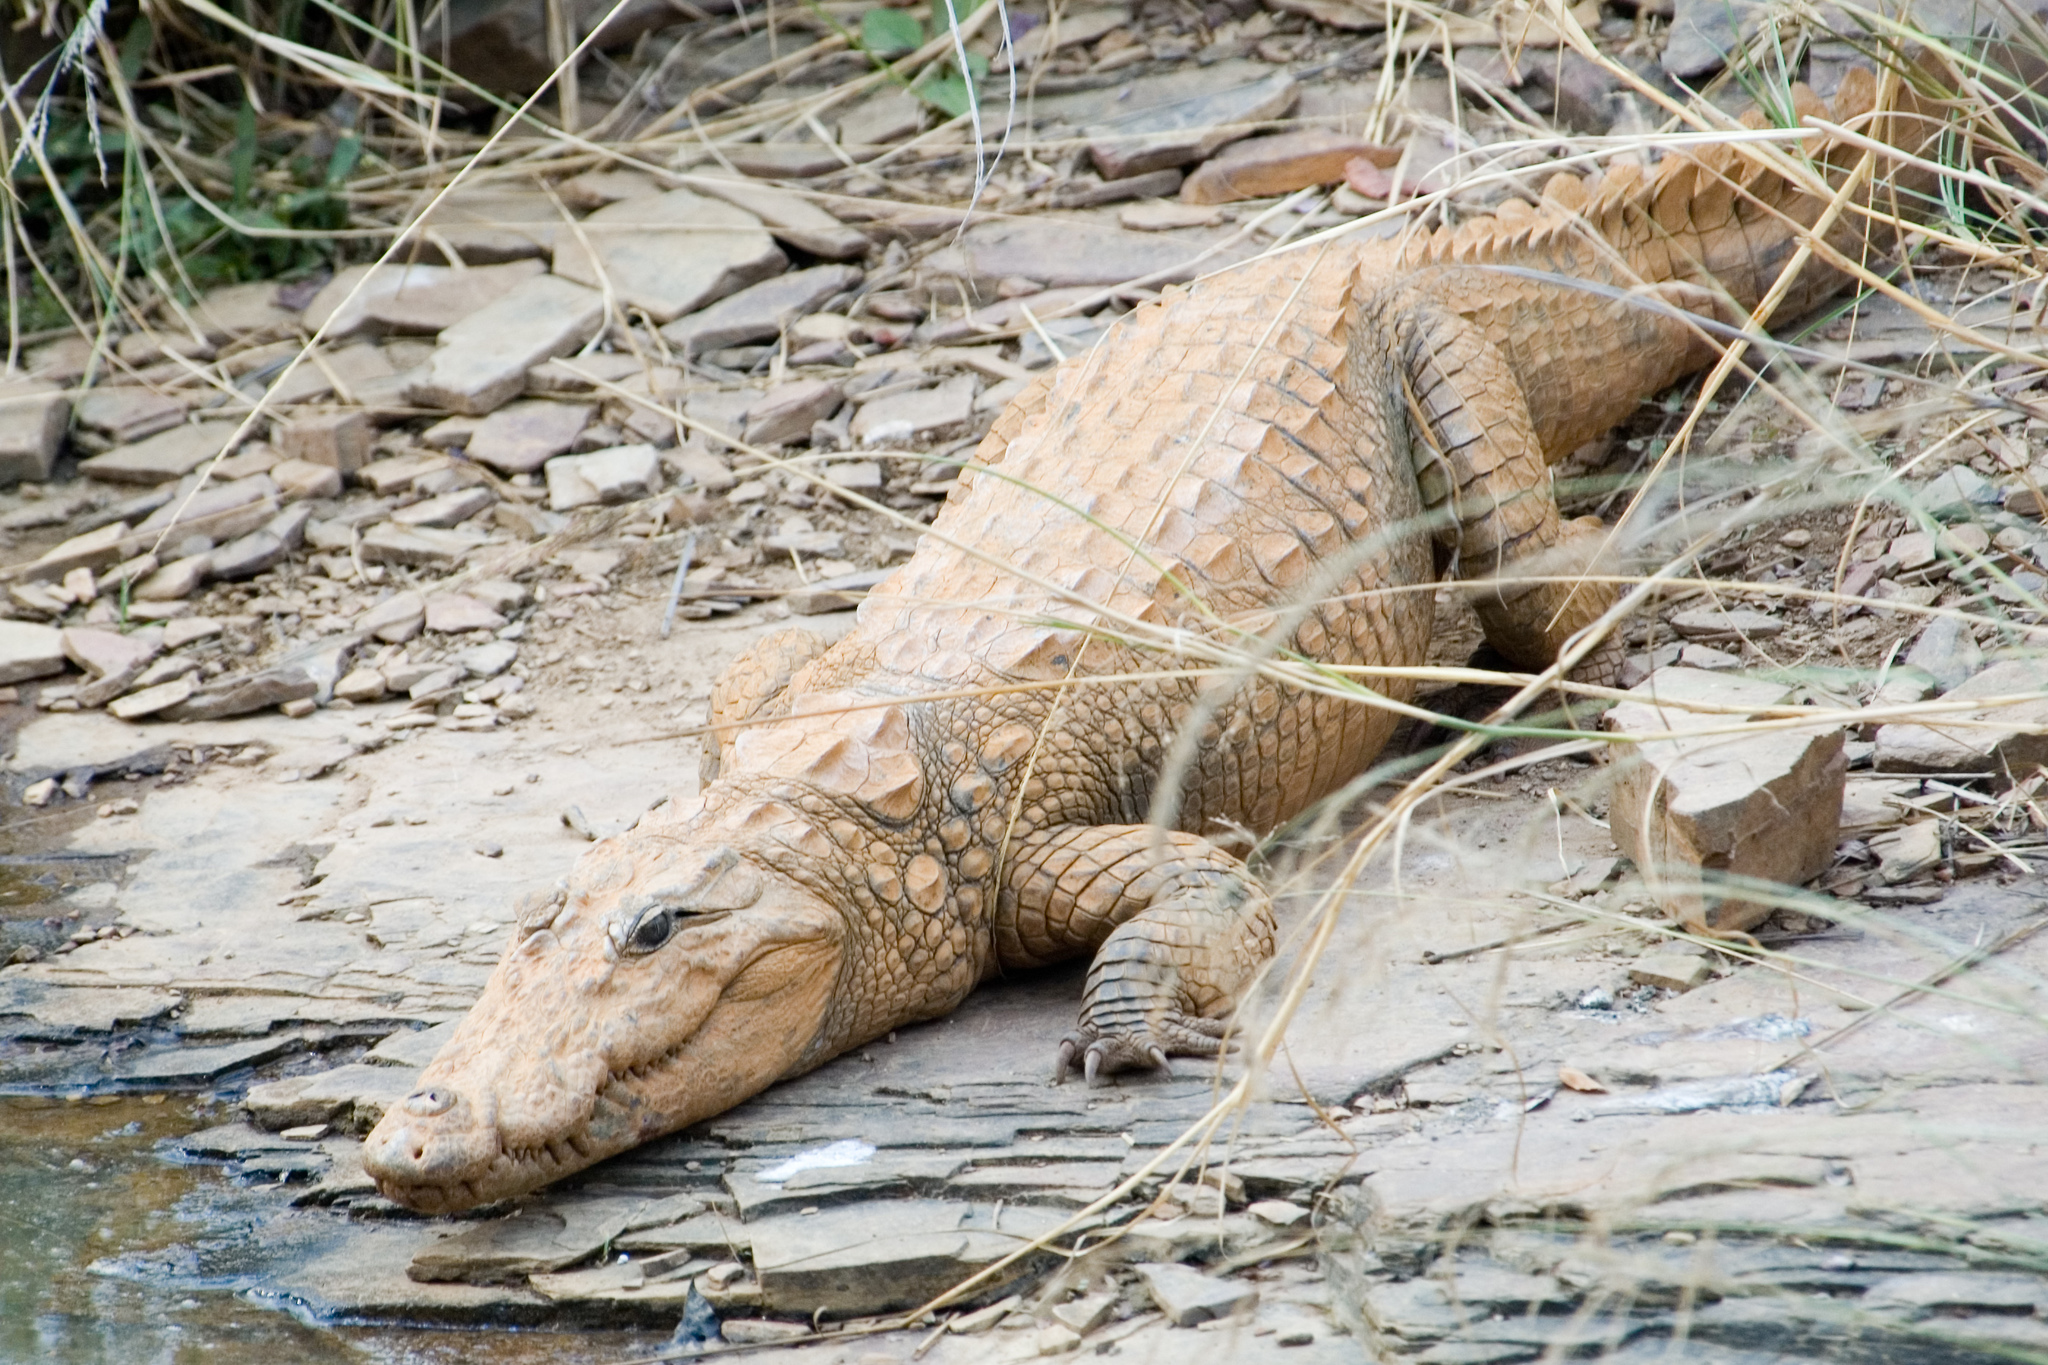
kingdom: Animalia
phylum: Chordata
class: Crocodylia
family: Crocodylidae
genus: Crocodylus
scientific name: Crocodylus palustris
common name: Mugger crocodile
